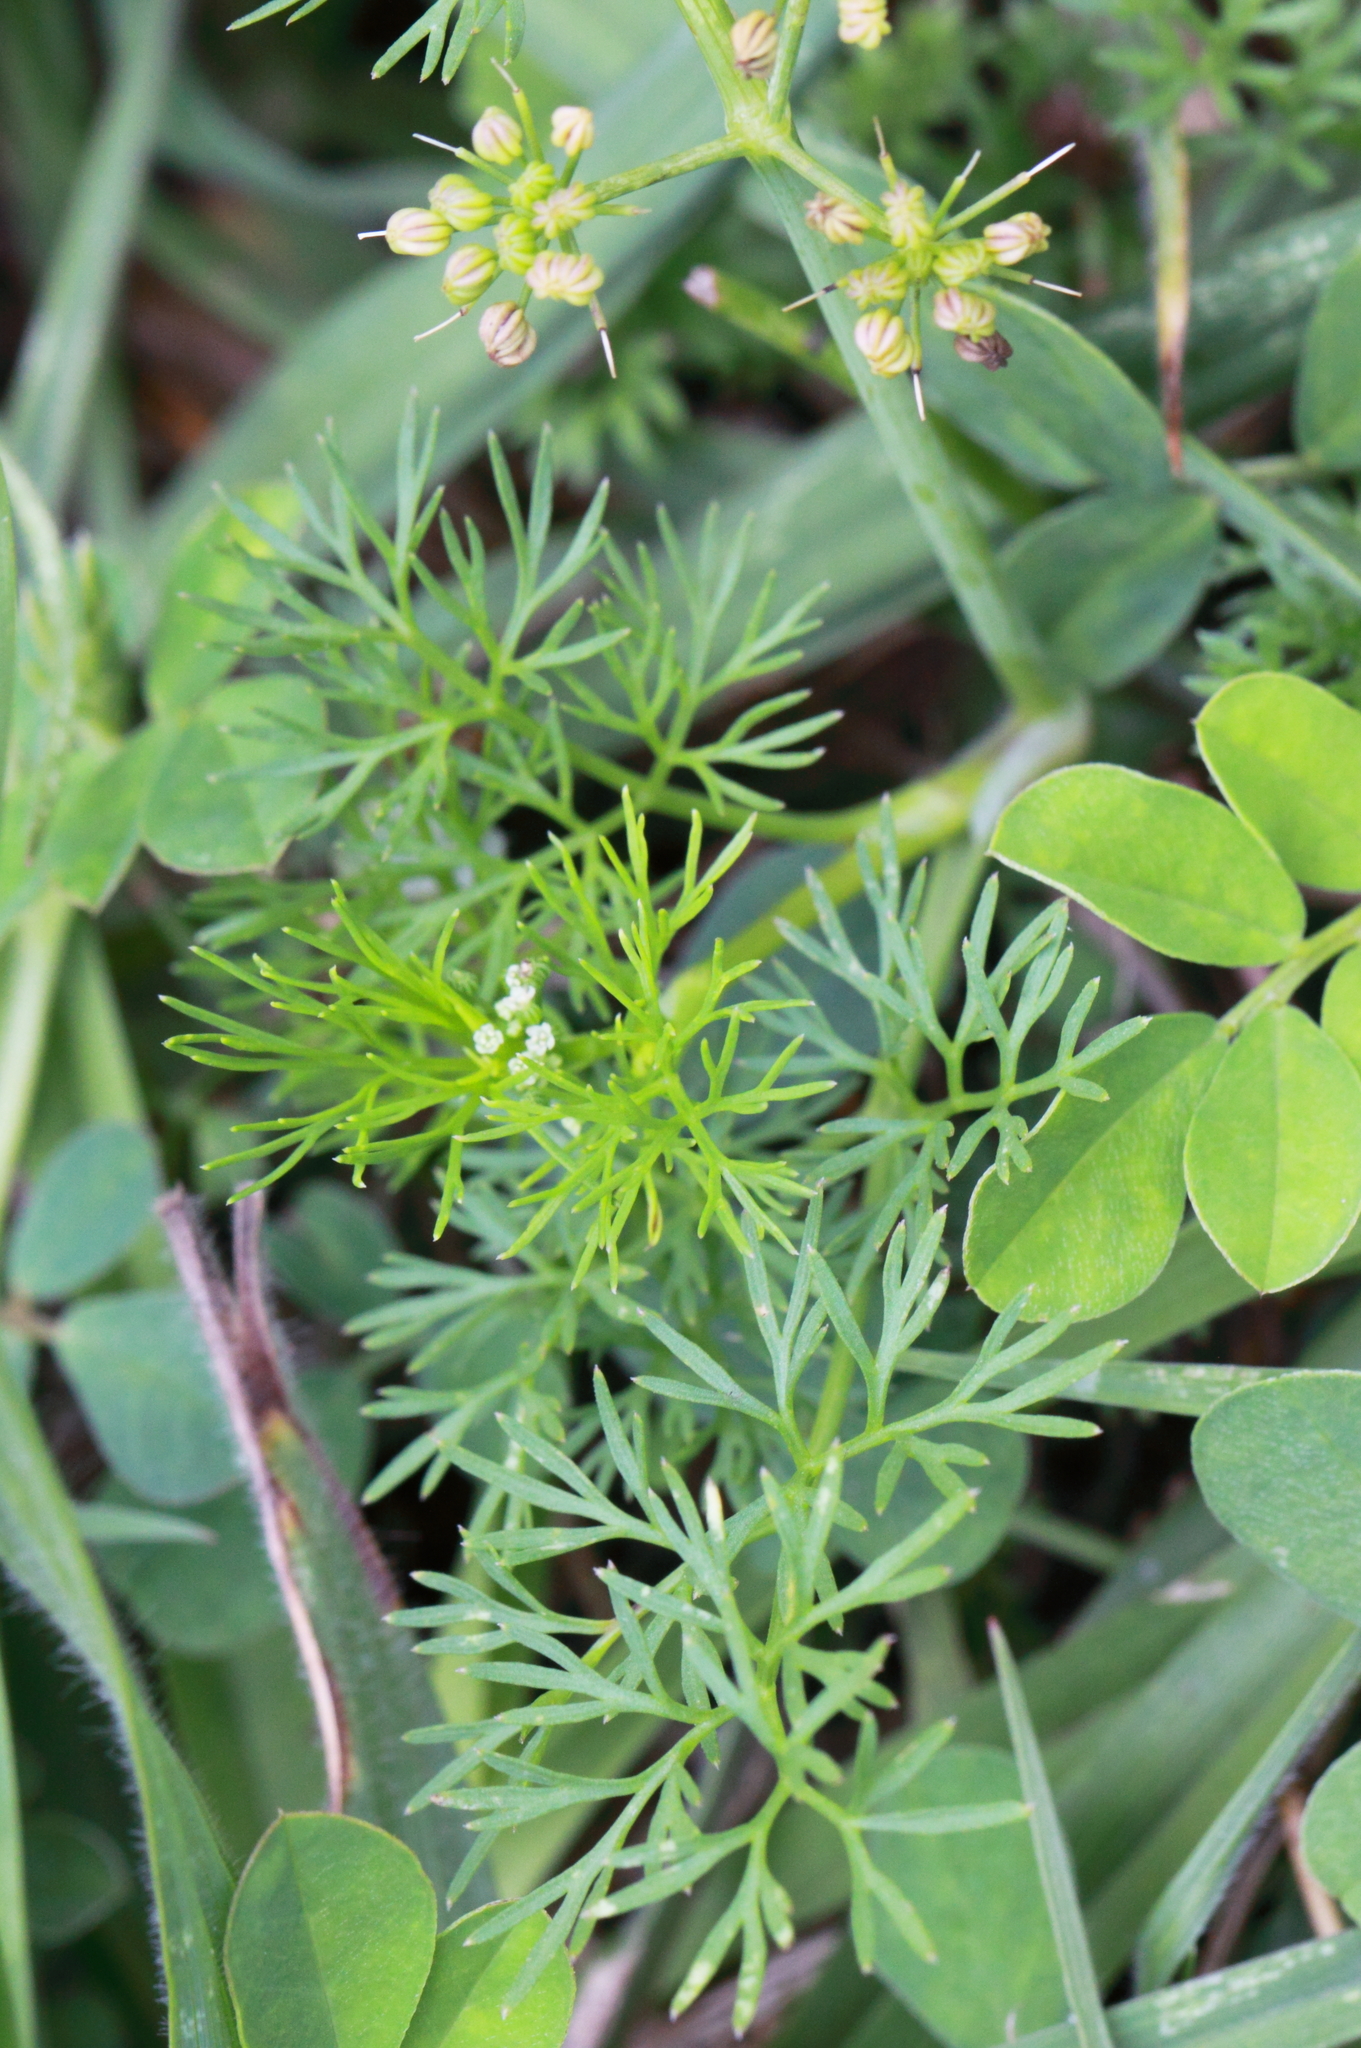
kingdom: Plantae
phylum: Tracheophyta
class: Magnoliopsida
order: Apiales
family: Apiaceae
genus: Cyclospermum
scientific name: Cyclospermum leptophyllum
